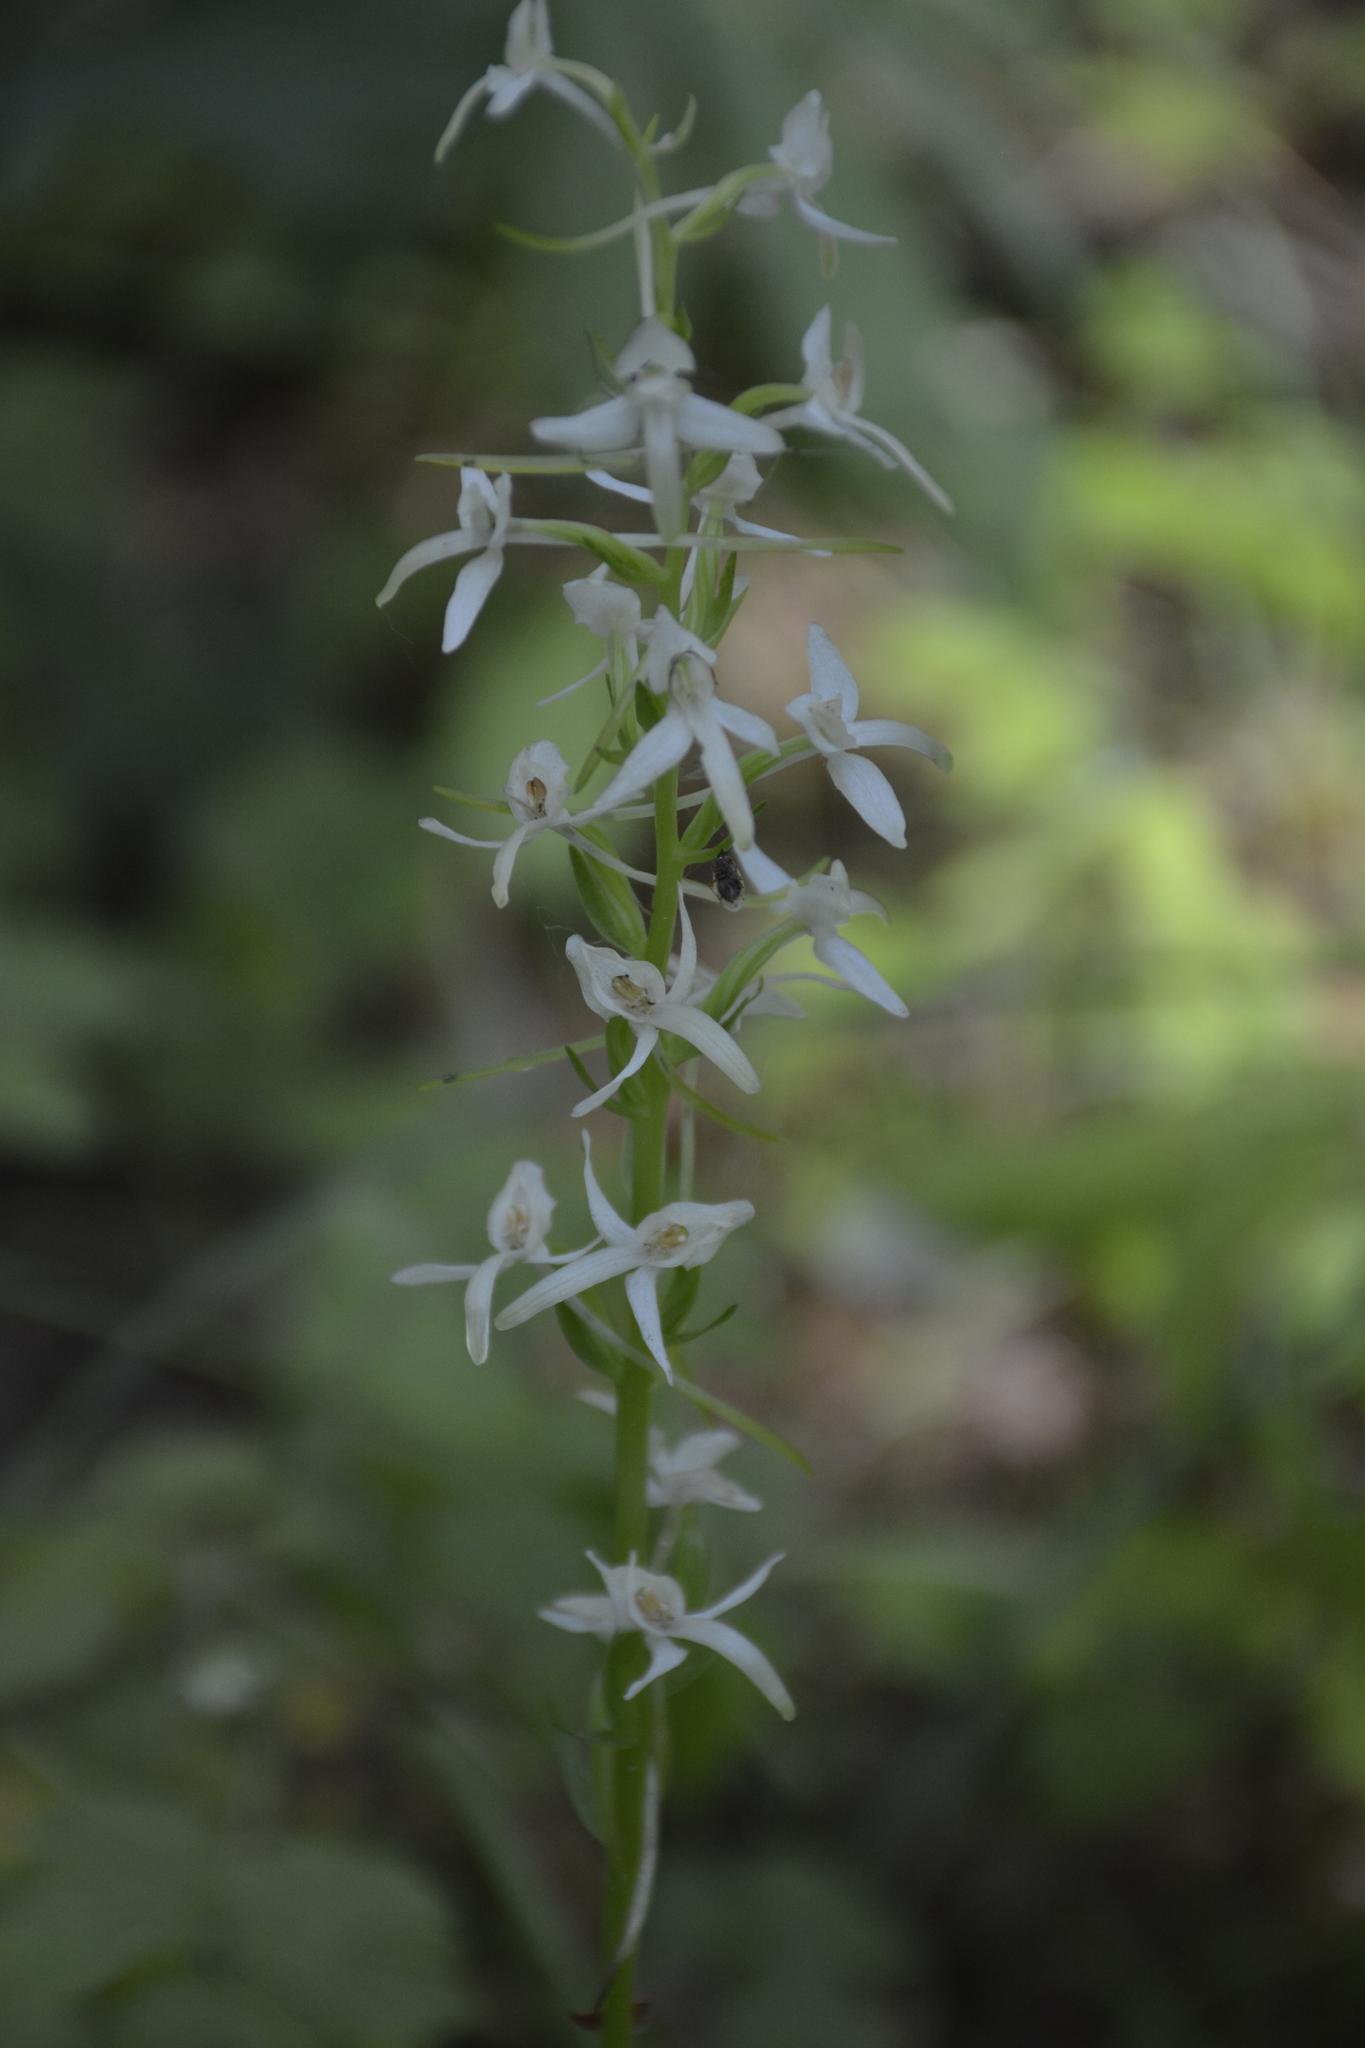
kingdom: Plantae
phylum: Tracheophyta
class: Liliopsida
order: Asparagales
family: Orchidaceae
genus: Platanthera
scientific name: Platanthera bifolia
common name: Lesser butterfly-orchid
